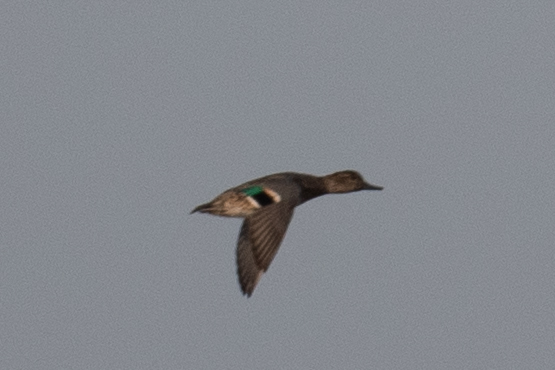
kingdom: Animalia
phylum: Chordata
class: Aves
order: Anseriformes
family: Anatidae
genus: Anas
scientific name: Anas crecca
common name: Eurasian teal
